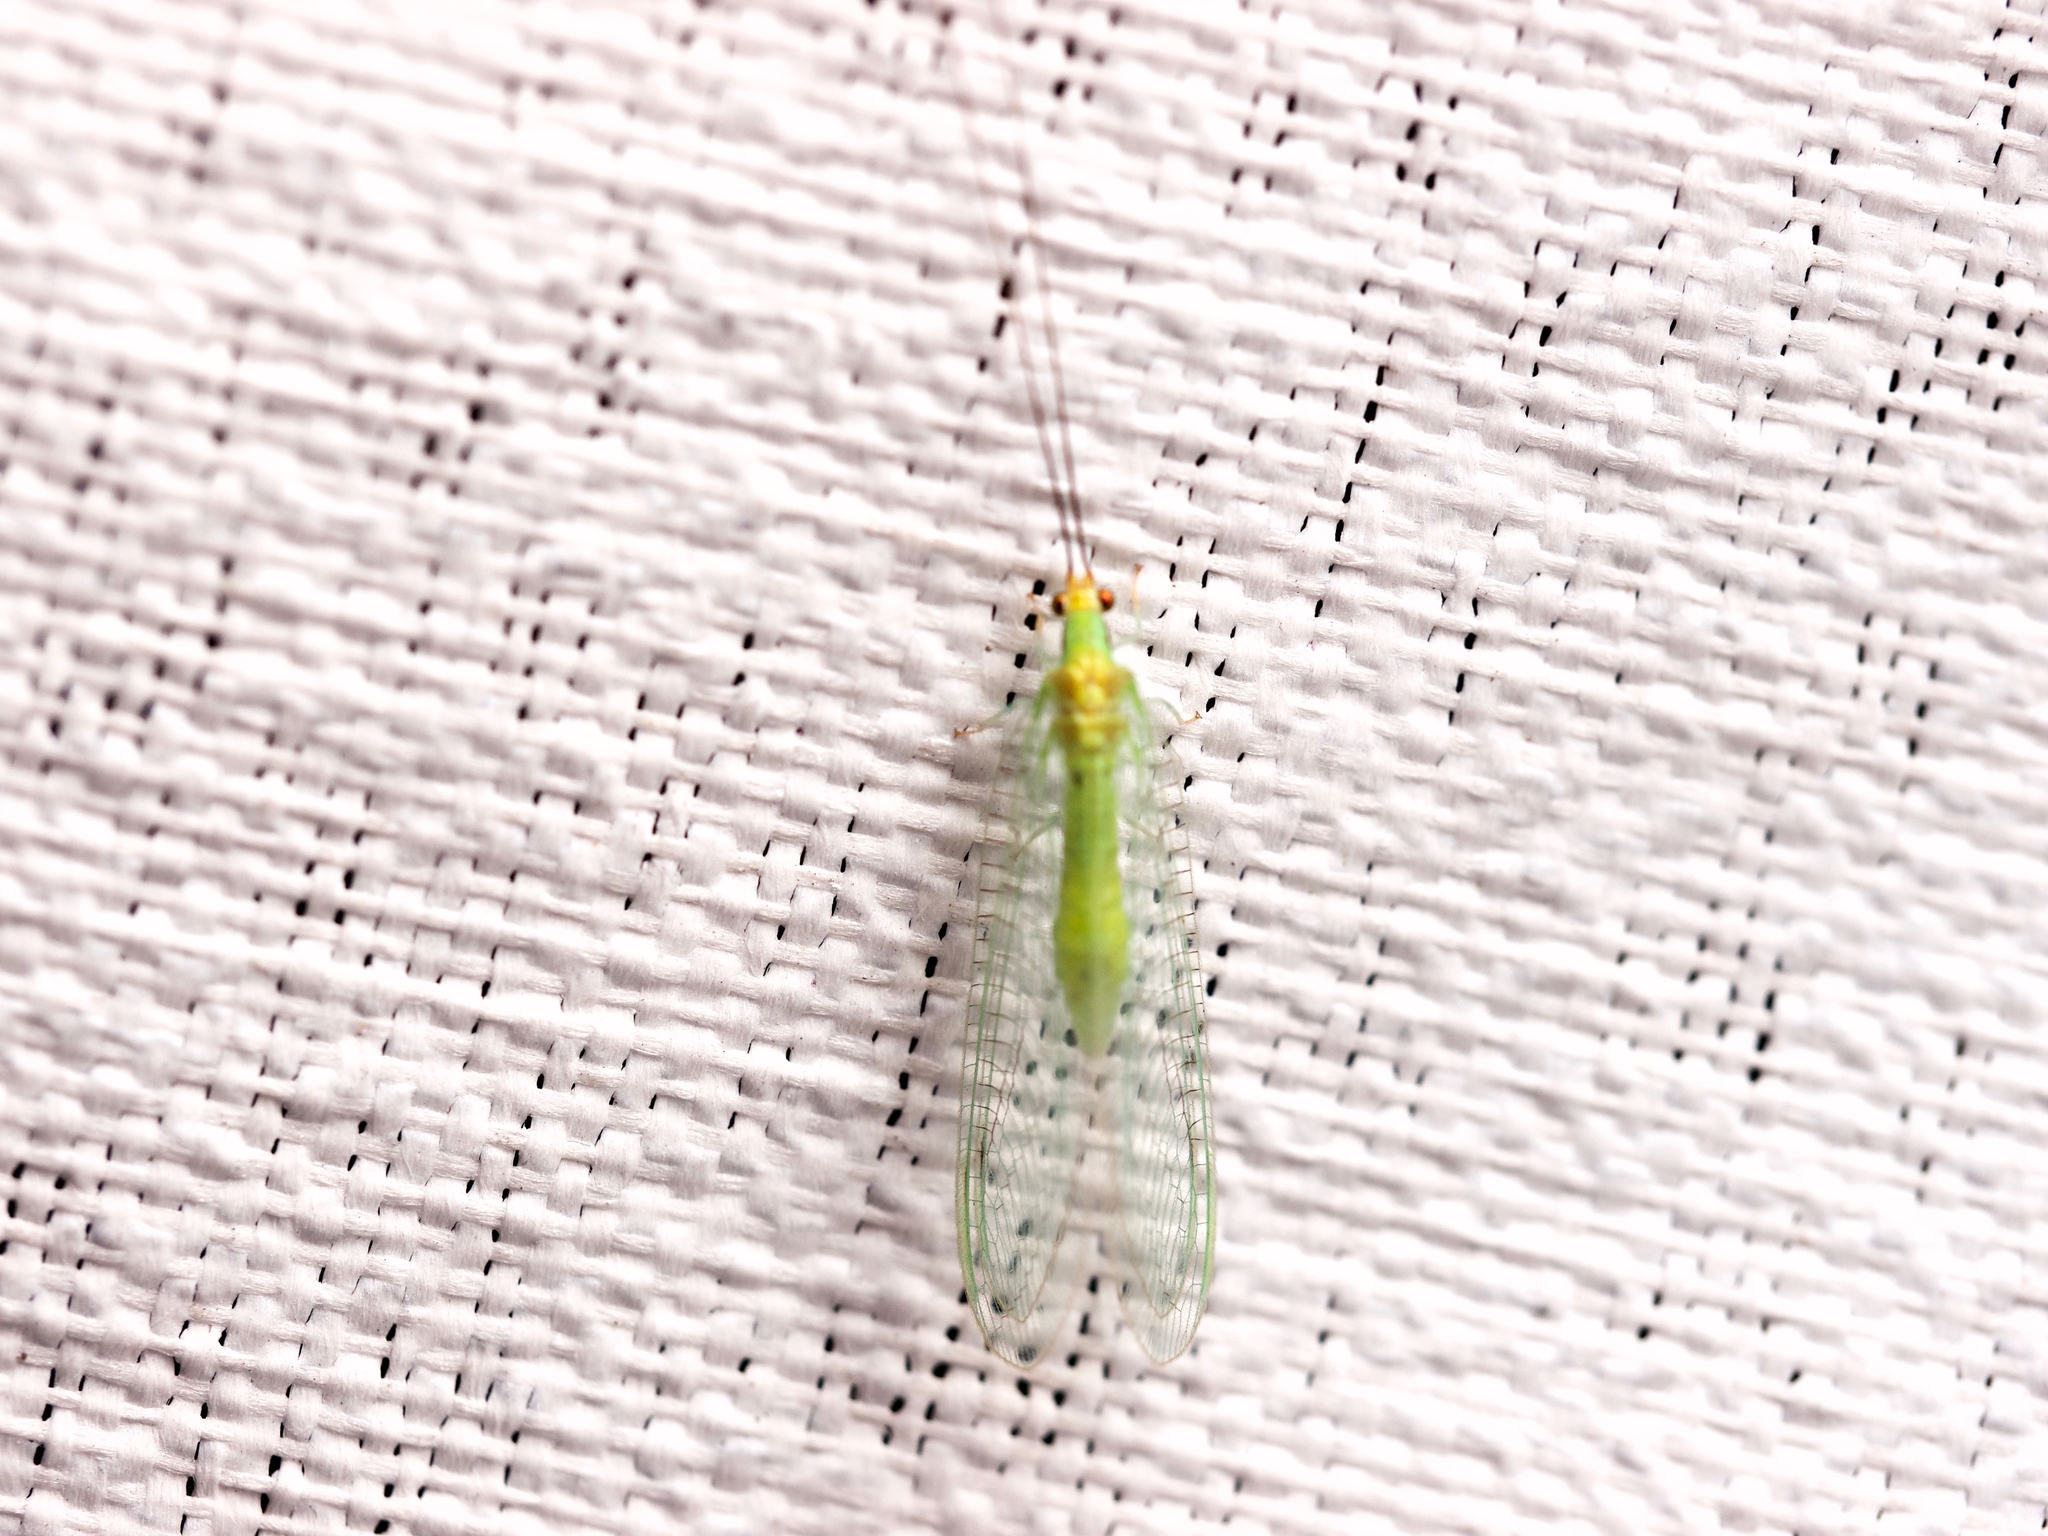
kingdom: Animalia
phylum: Arthropoda
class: Insecta
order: Neuroptera
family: Chrysopidae
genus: Leucochrysa
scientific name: Leucochrysa pavida
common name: Lichen-carrying green lacewing
